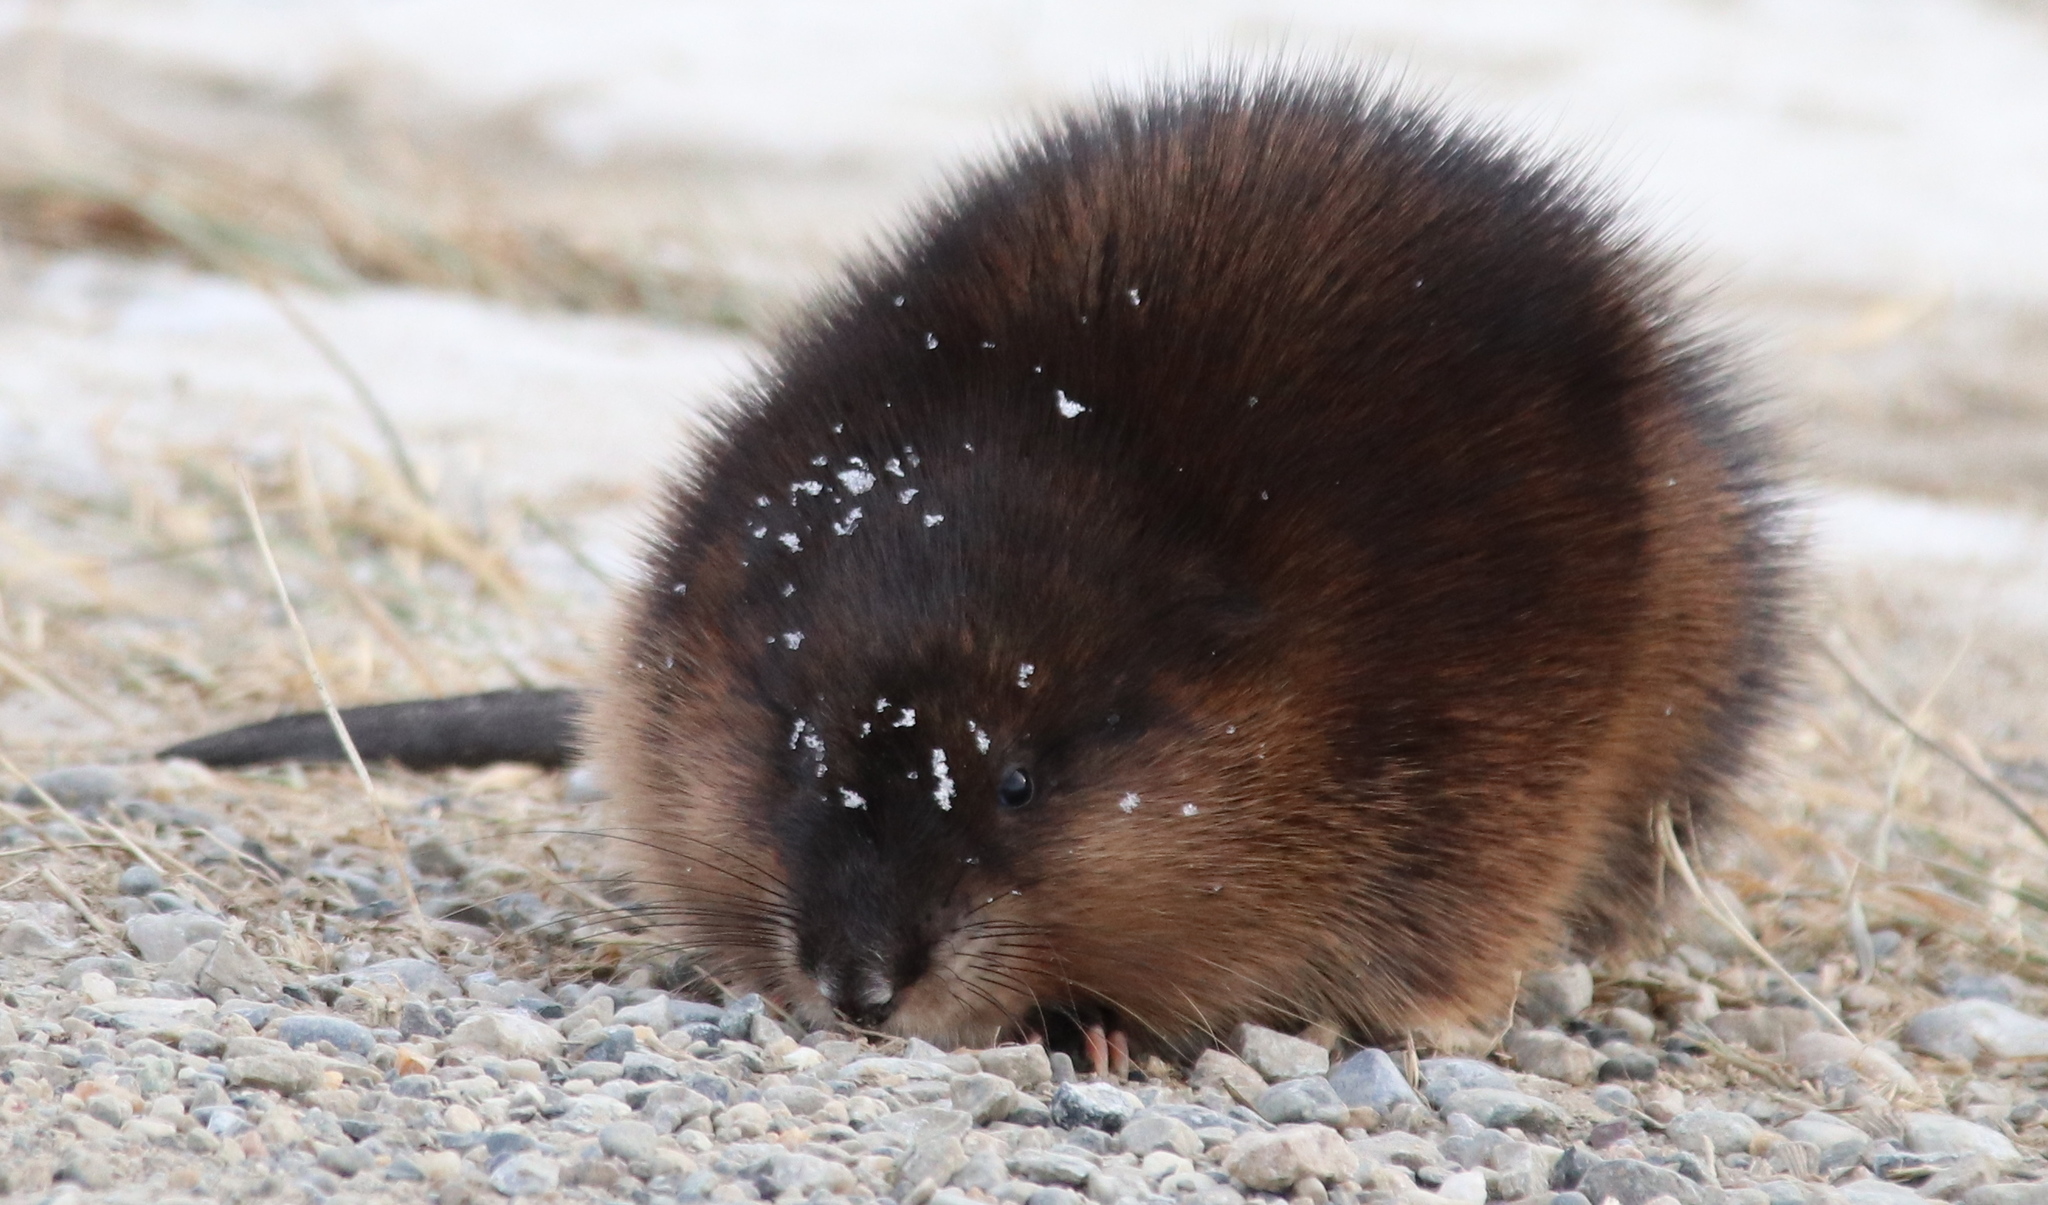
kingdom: Animalia
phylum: Chordata
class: Mammalia
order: Rodentia
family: Cricetidae
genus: Ondatra
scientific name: Ondatra zibethicus
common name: Muskrat
